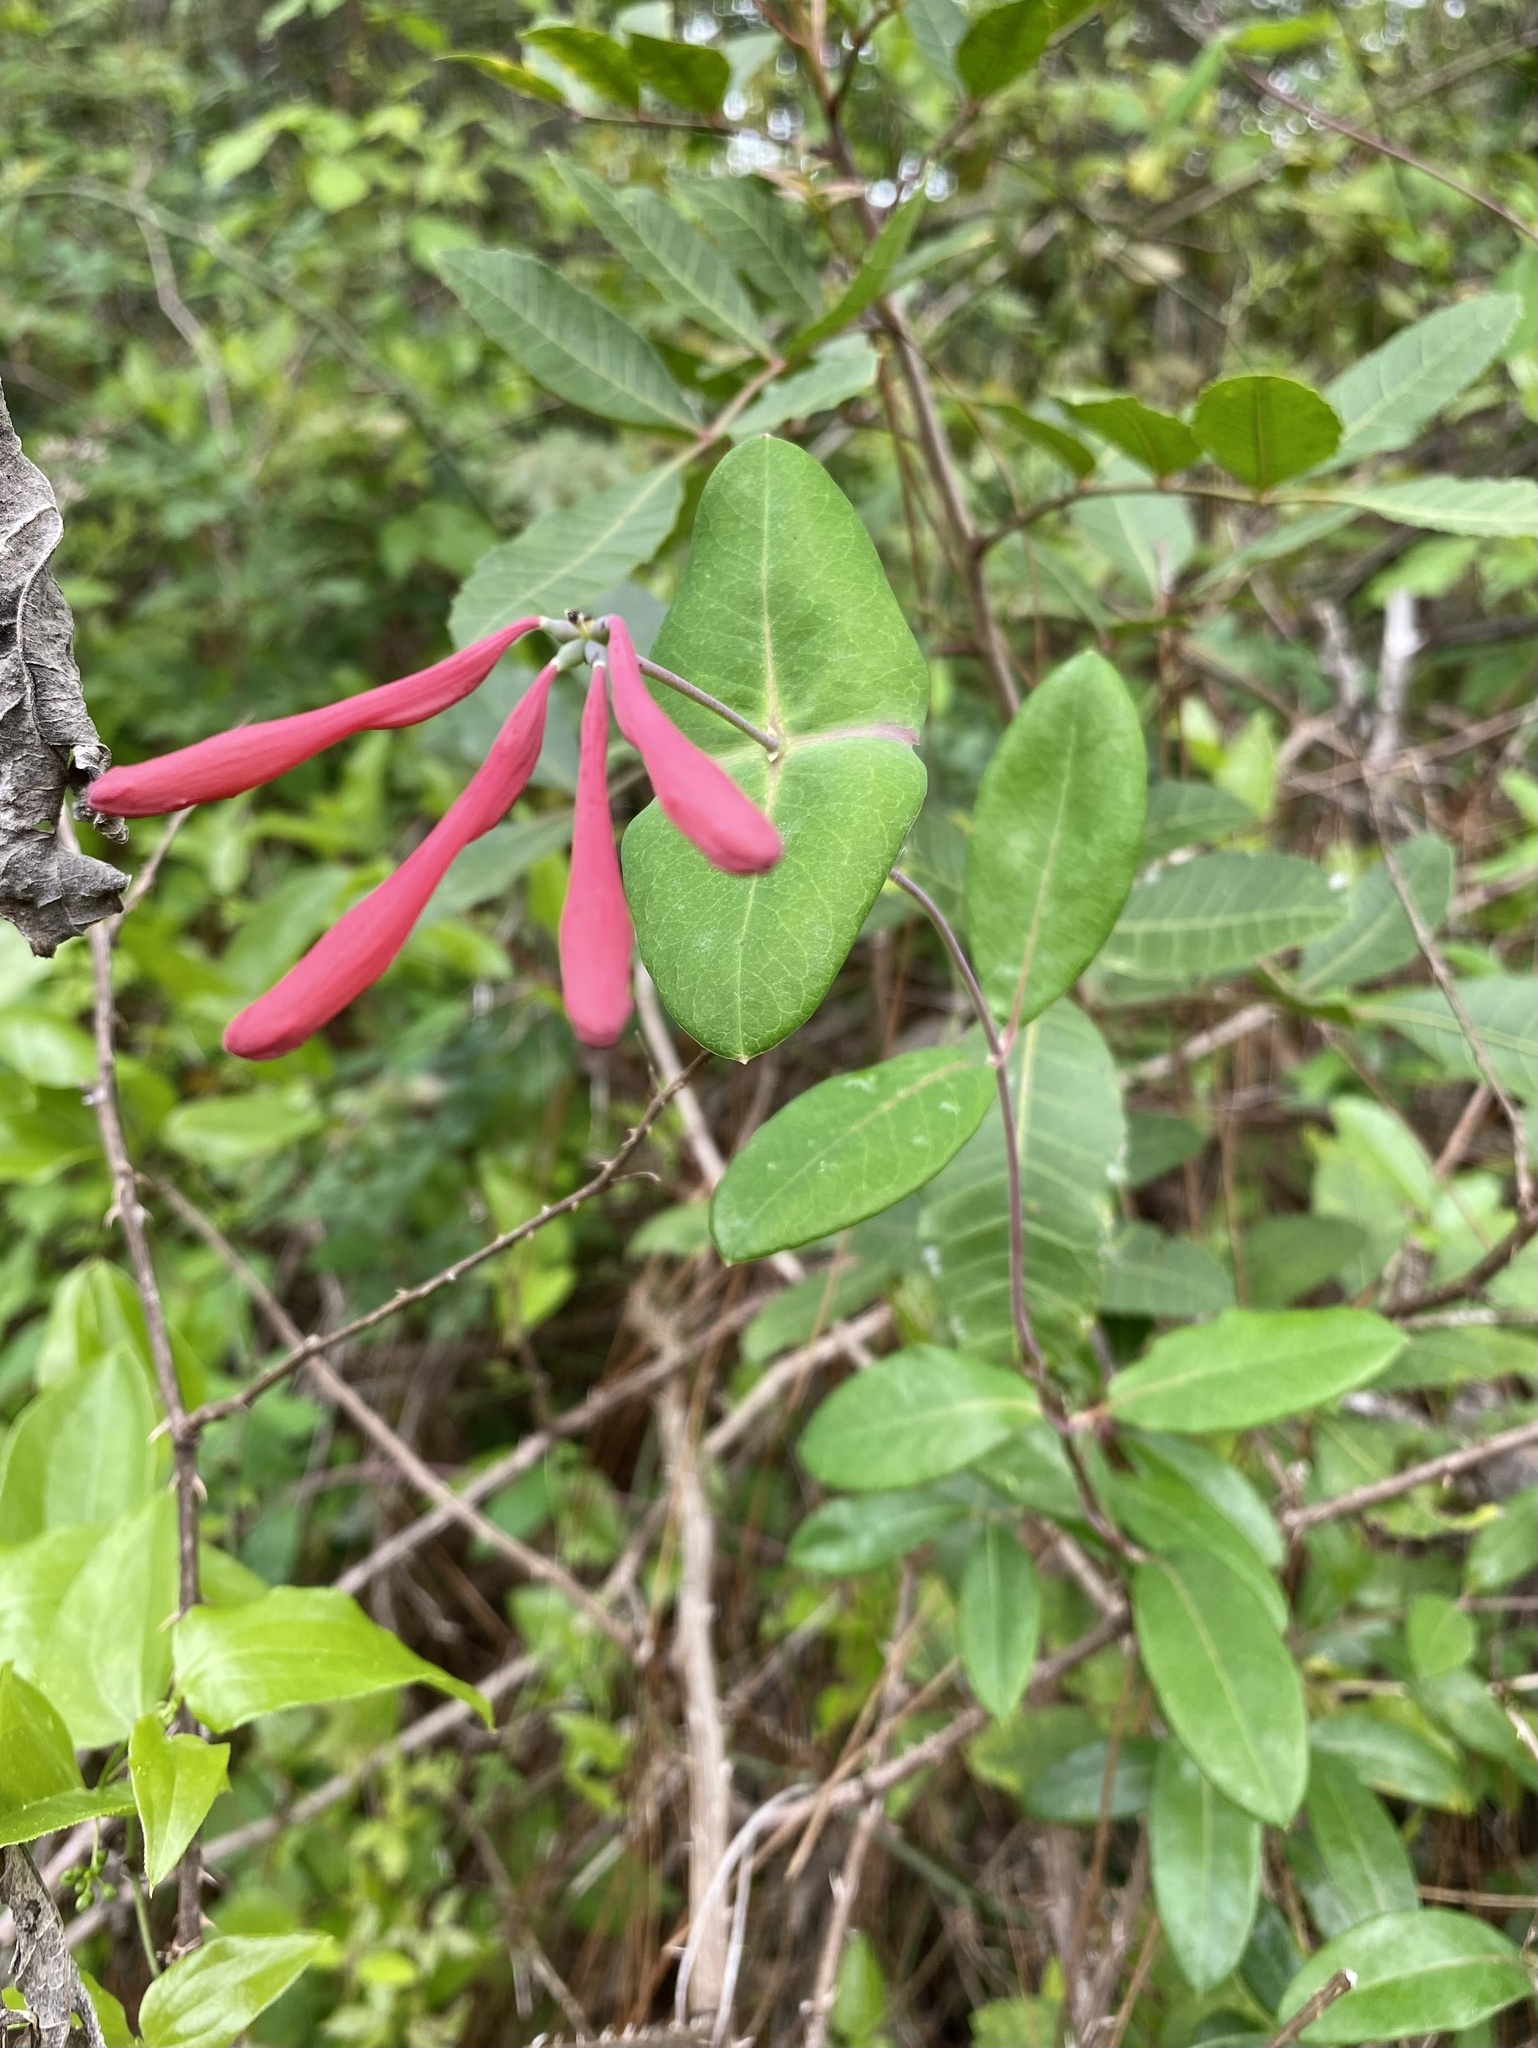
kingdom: Plantae
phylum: Tracheophyta
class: Magnoliopsida
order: Dipsacales
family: Caprifoliaceae
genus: Lonicera
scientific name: Lonicera sempervirens
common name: Coral honeysuckle
